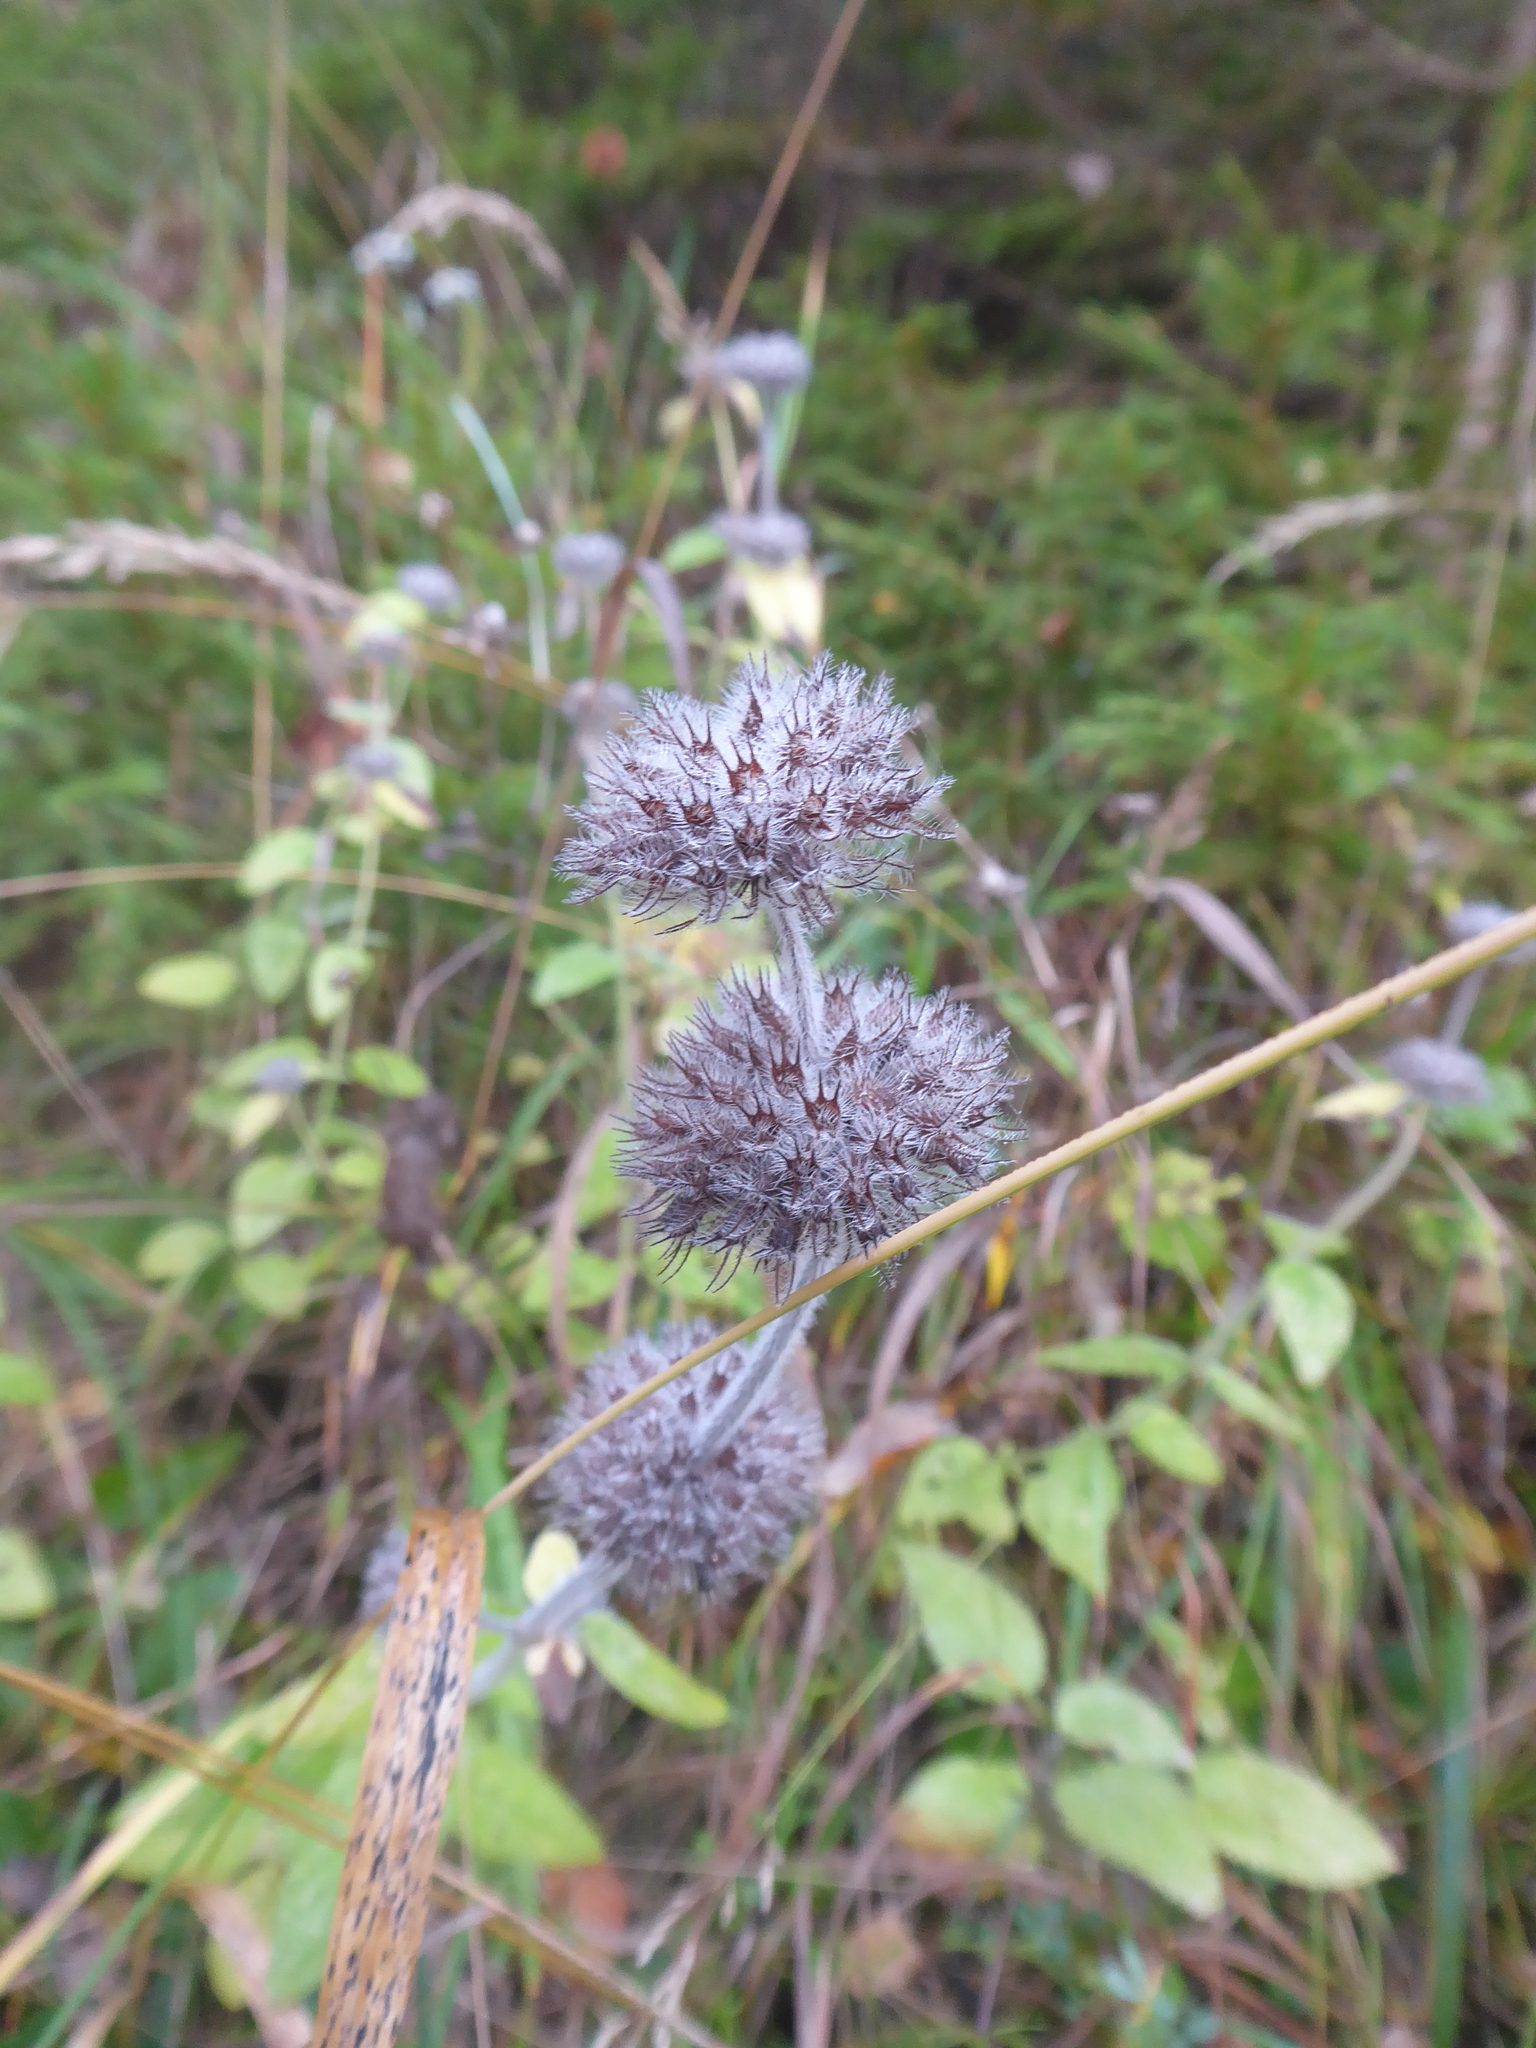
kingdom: Plantae
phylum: Tracheophyta
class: Magnoliopsida
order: Lamiales
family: Lamiaceae
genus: Clinopodium
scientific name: Clinopodium vulgare
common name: Wild basil
